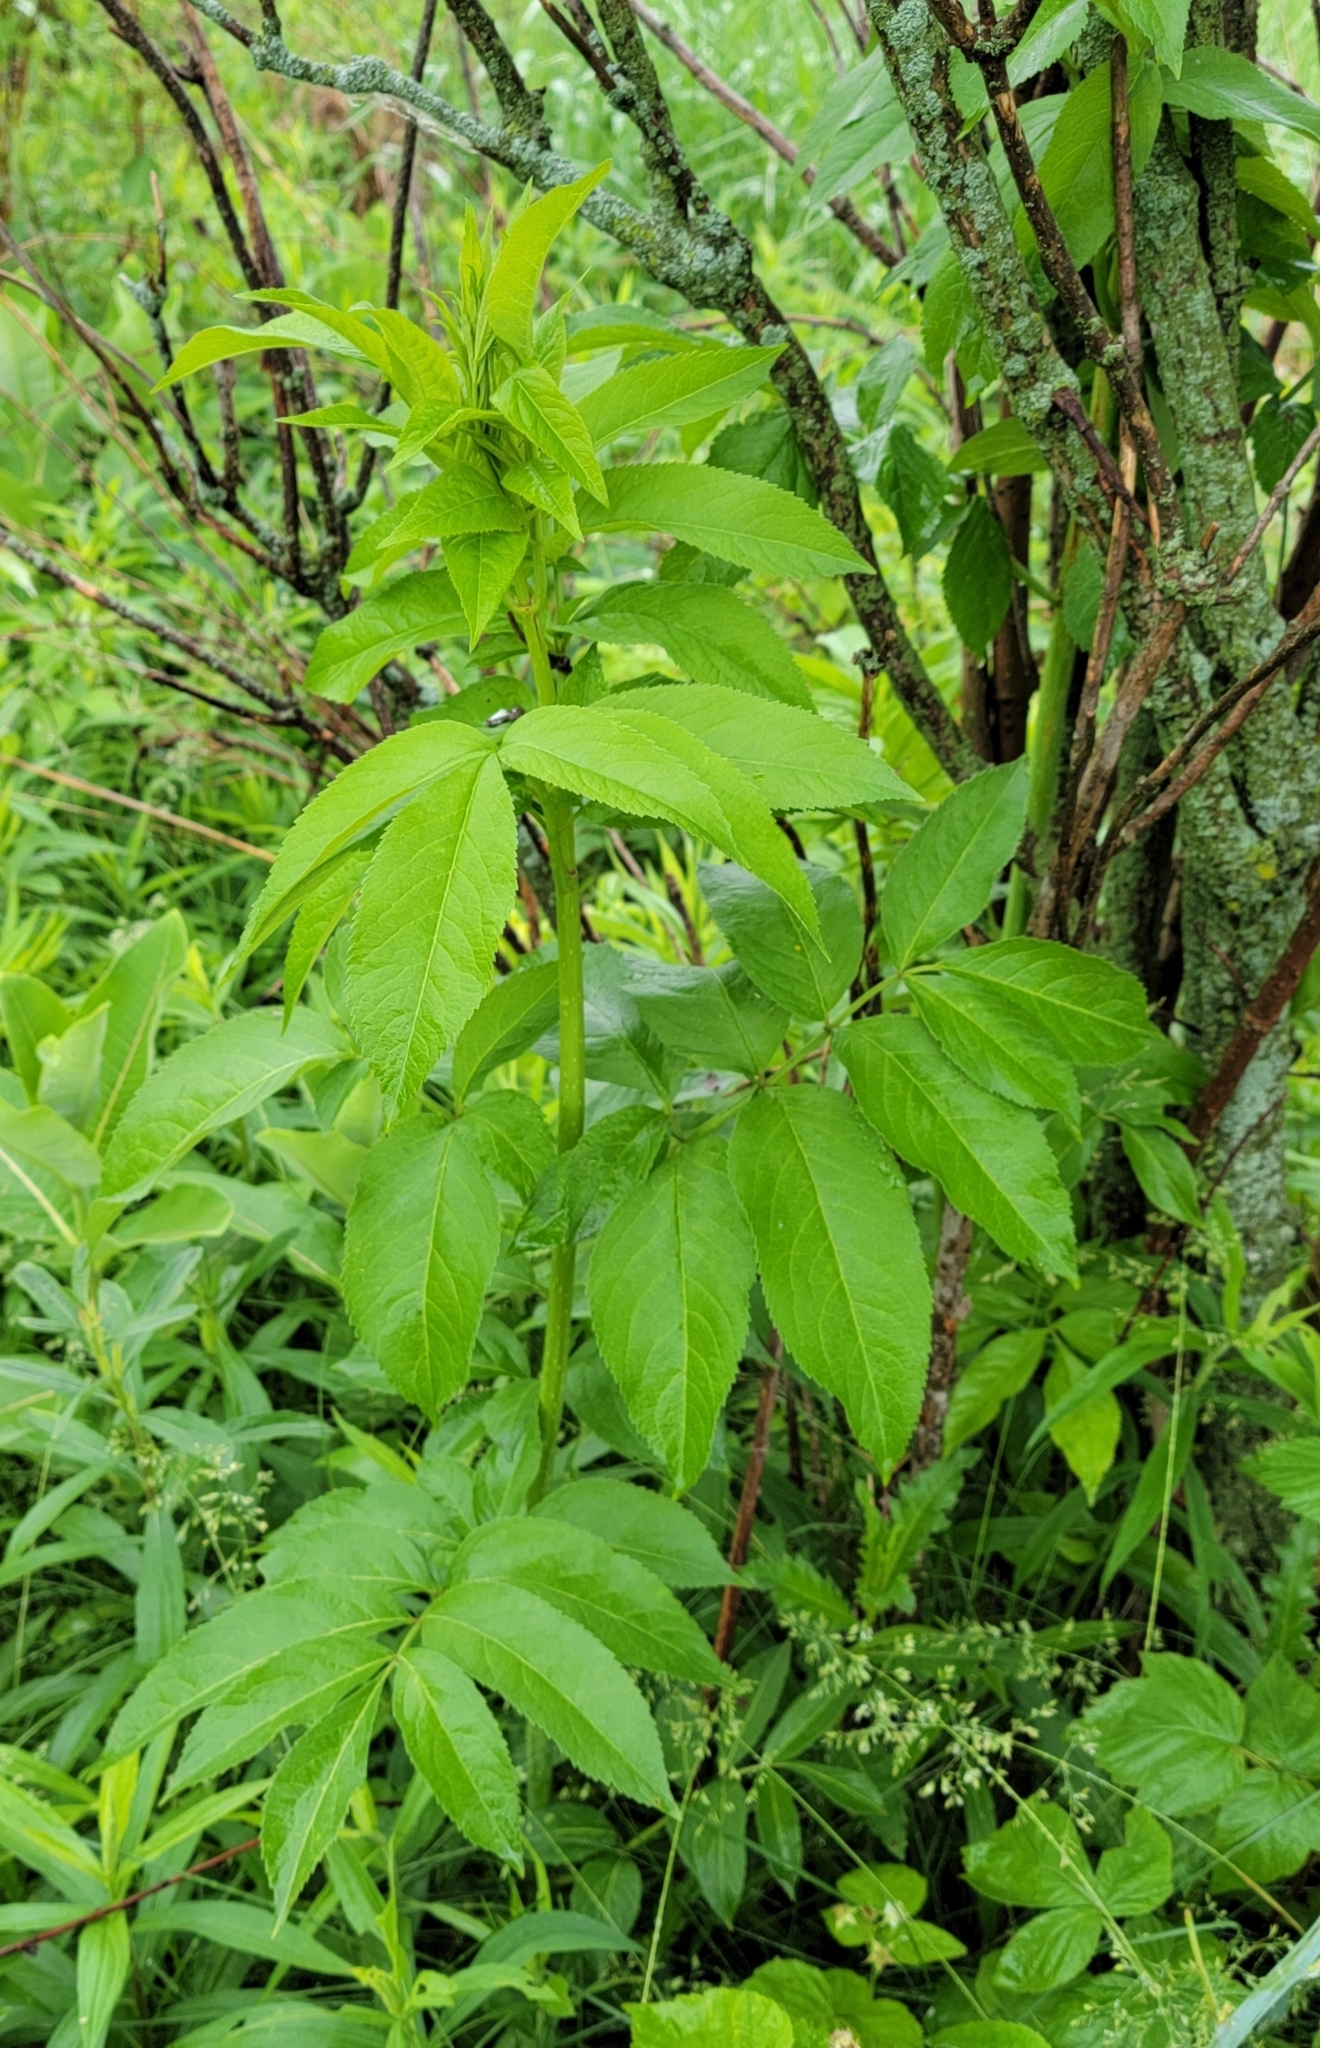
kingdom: Plantae
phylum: Tracheophyta
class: Magnoliopsida
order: Dipsacales
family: Viburnaceae
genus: Sambucus
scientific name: Sambucus canadensis
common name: American elder
